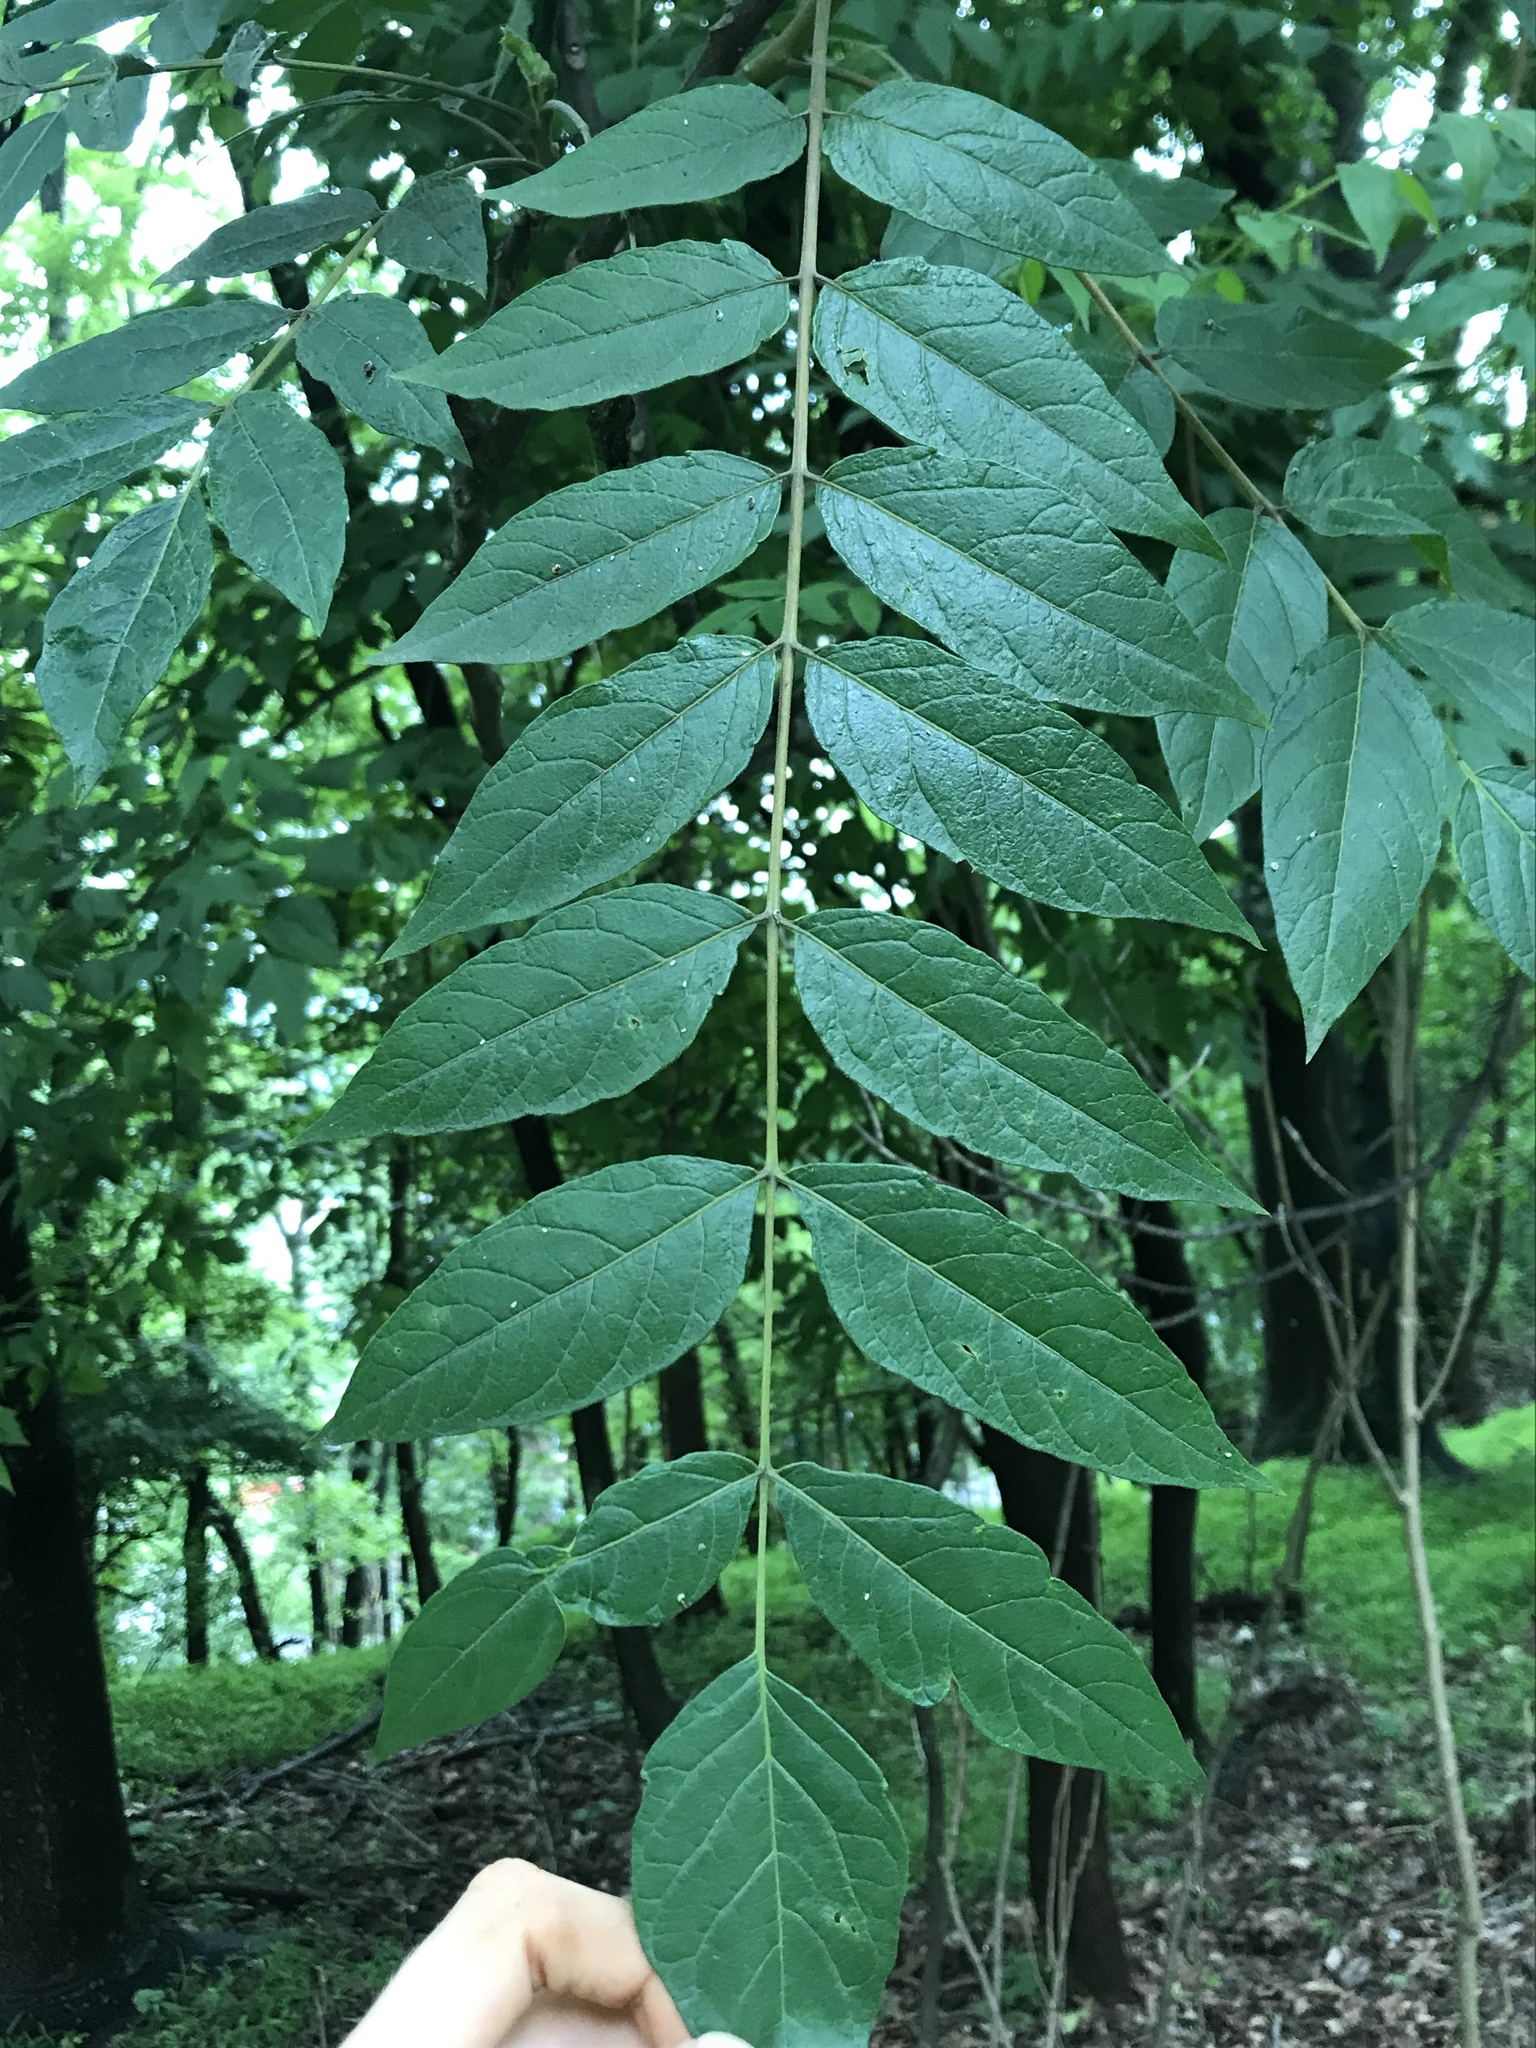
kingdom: Plantae
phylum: Tracheophyta
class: Magnoliopsida
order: Sapindales
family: Simaroubaceae
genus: Ailanthus
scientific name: Ailanthus altissima
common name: Tree-of-heaven
